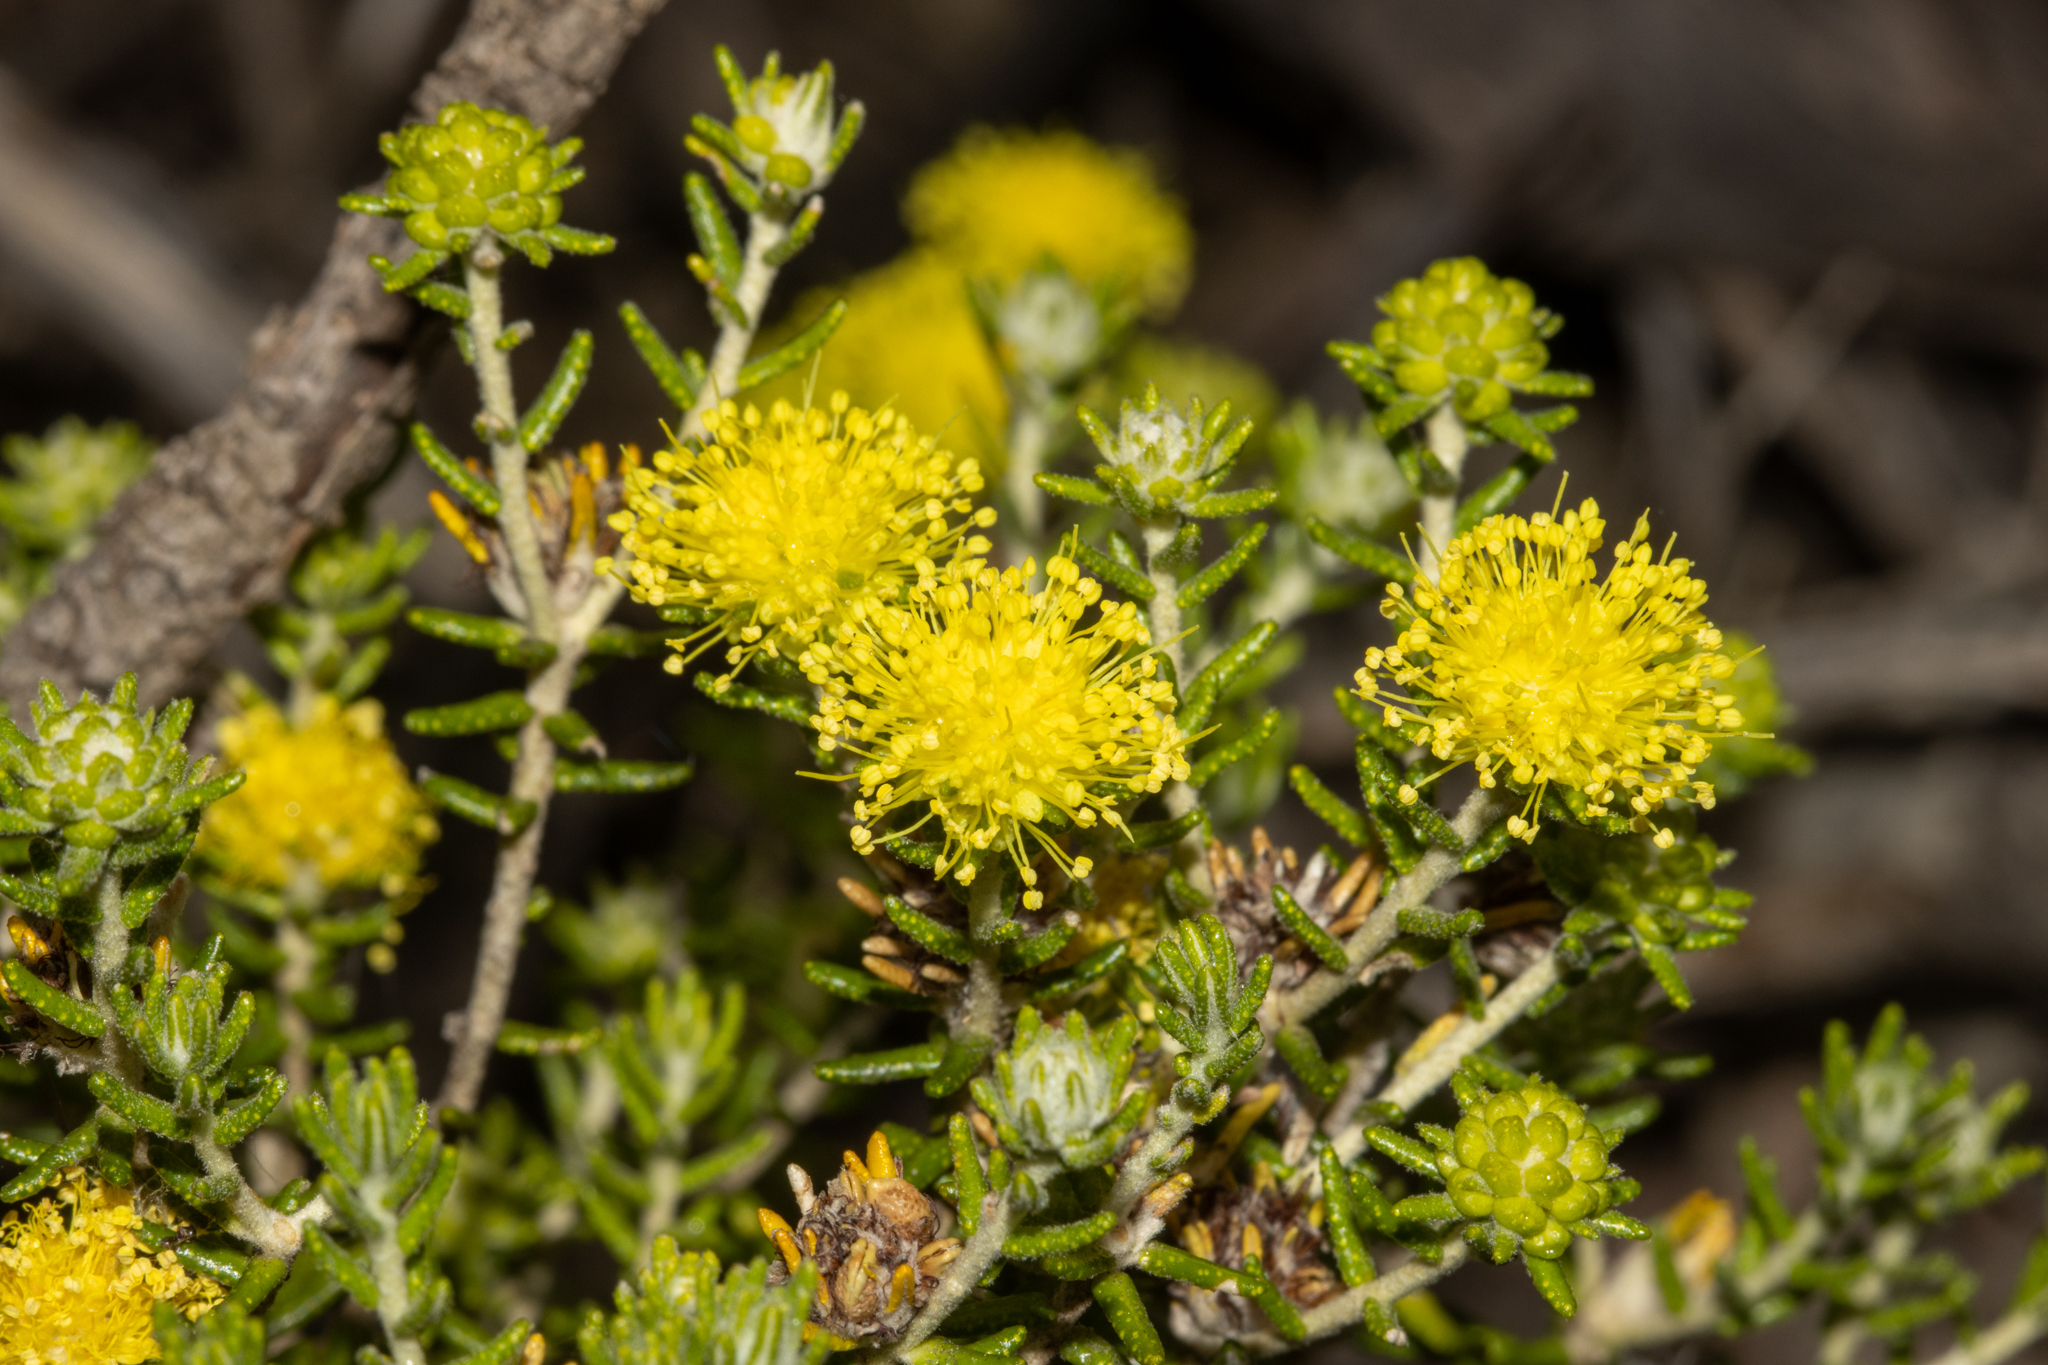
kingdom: Plantae
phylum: Tracheophyta
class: Magnoliopsida
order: Sapindales
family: Rutaceae
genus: Microcybe
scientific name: Microcybe pauciflora
